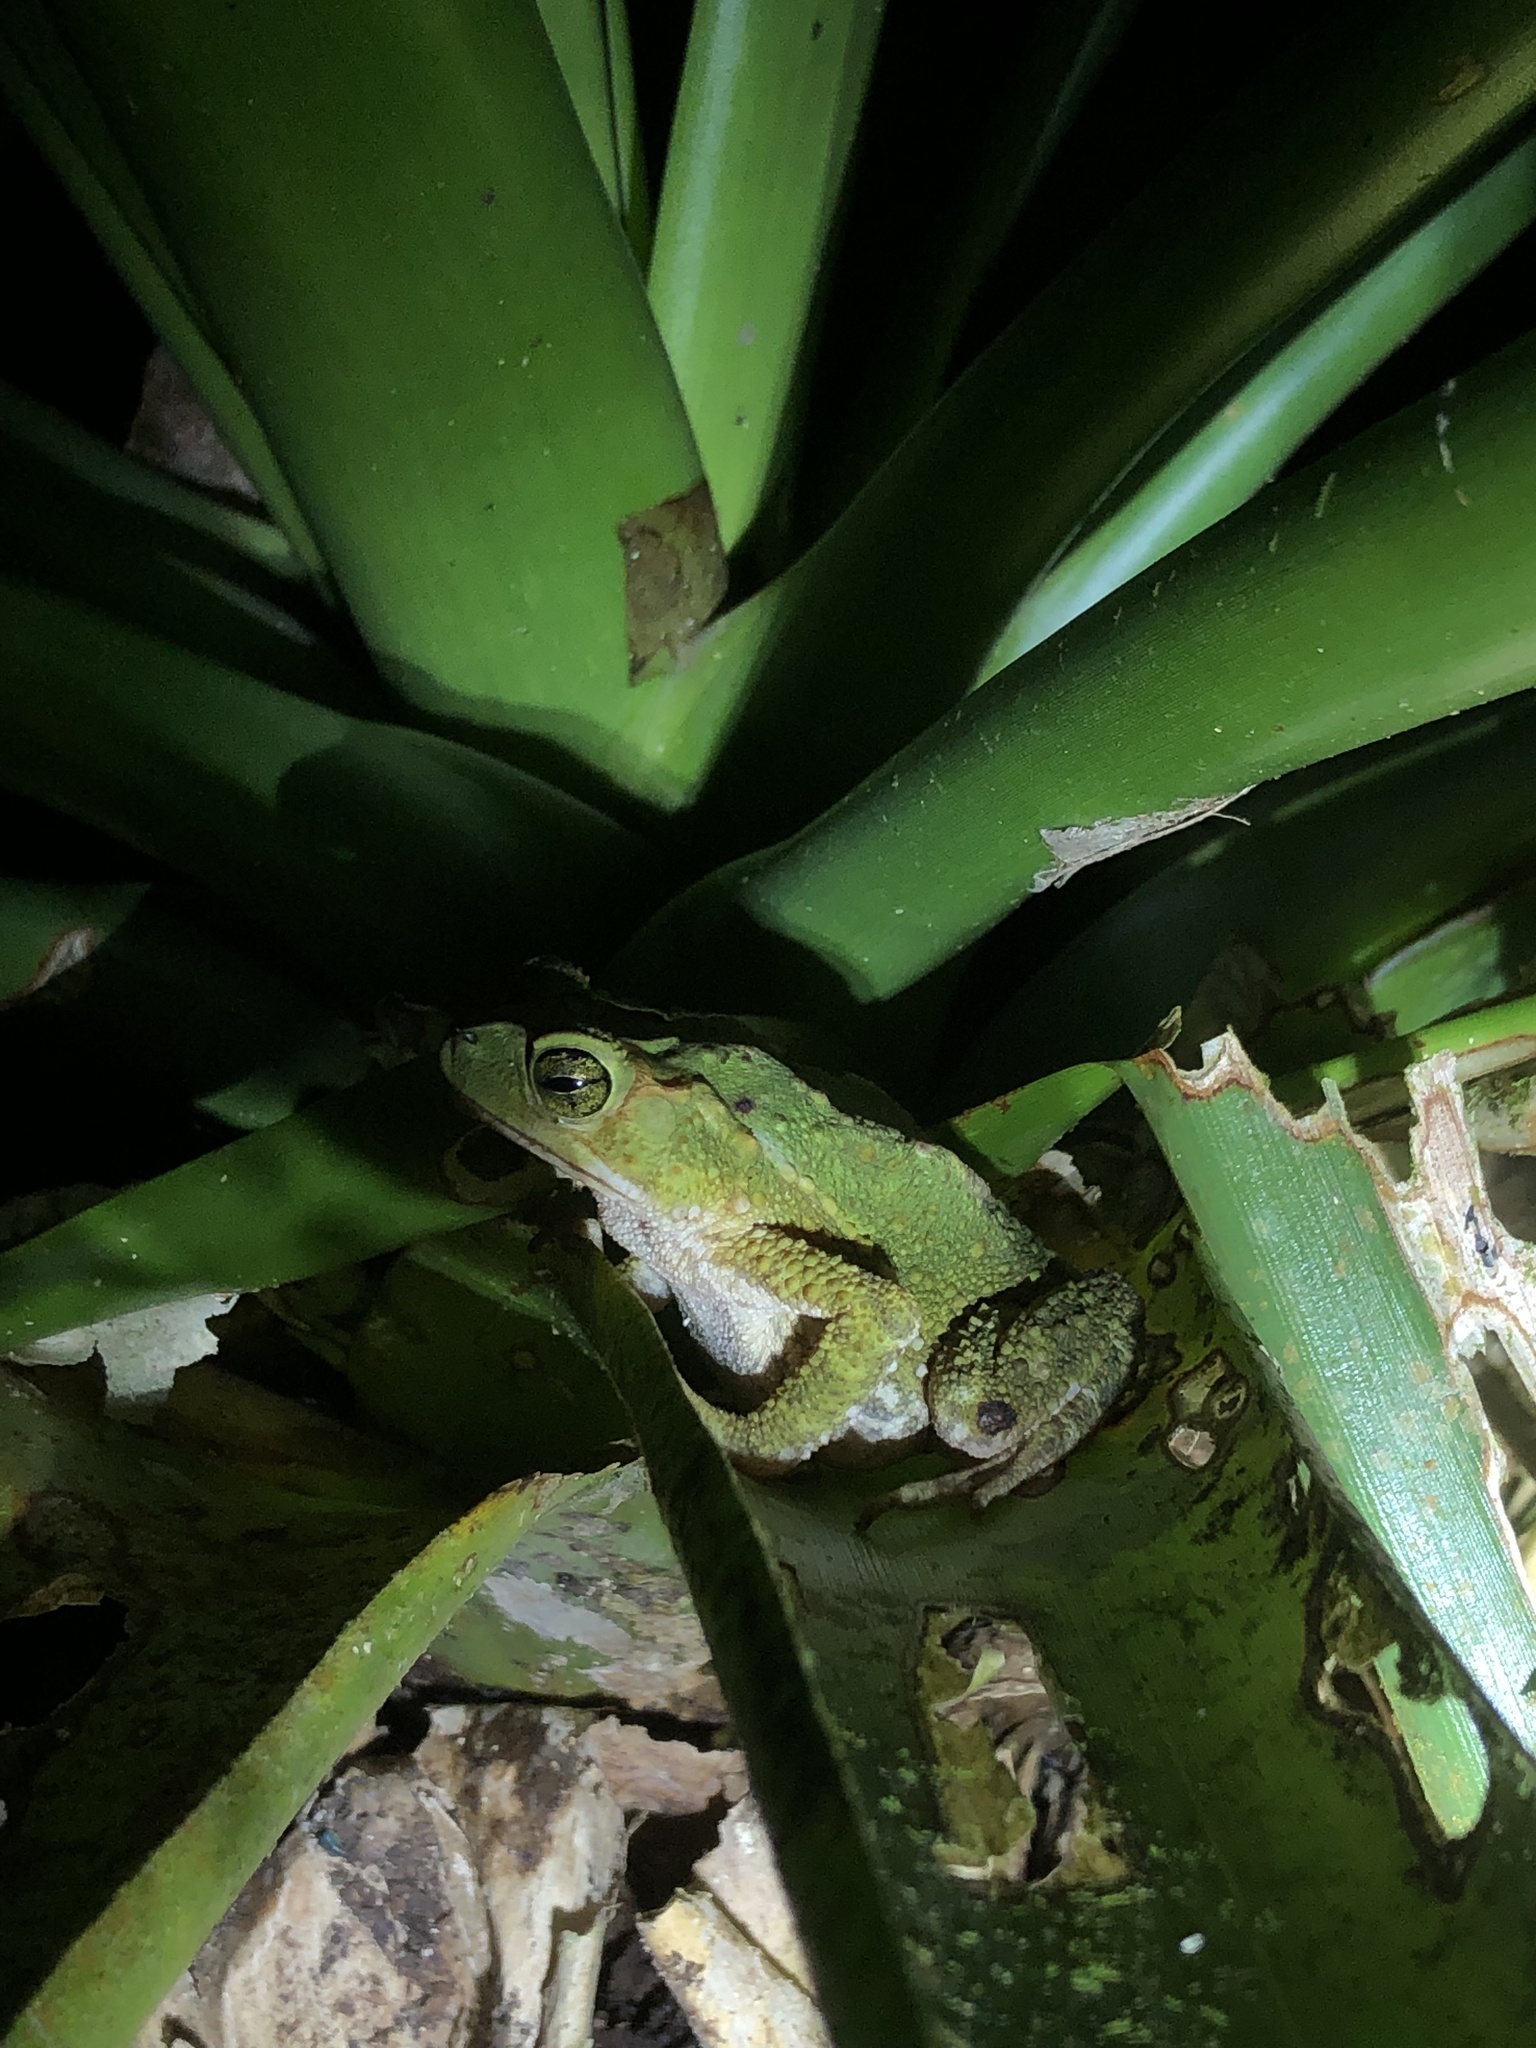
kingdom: Animalia
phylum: Chordata
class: Amphibia
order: Anura
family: Bufonidae
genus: Incilius
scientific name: Incilius coniferus
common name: Evergreen toad
